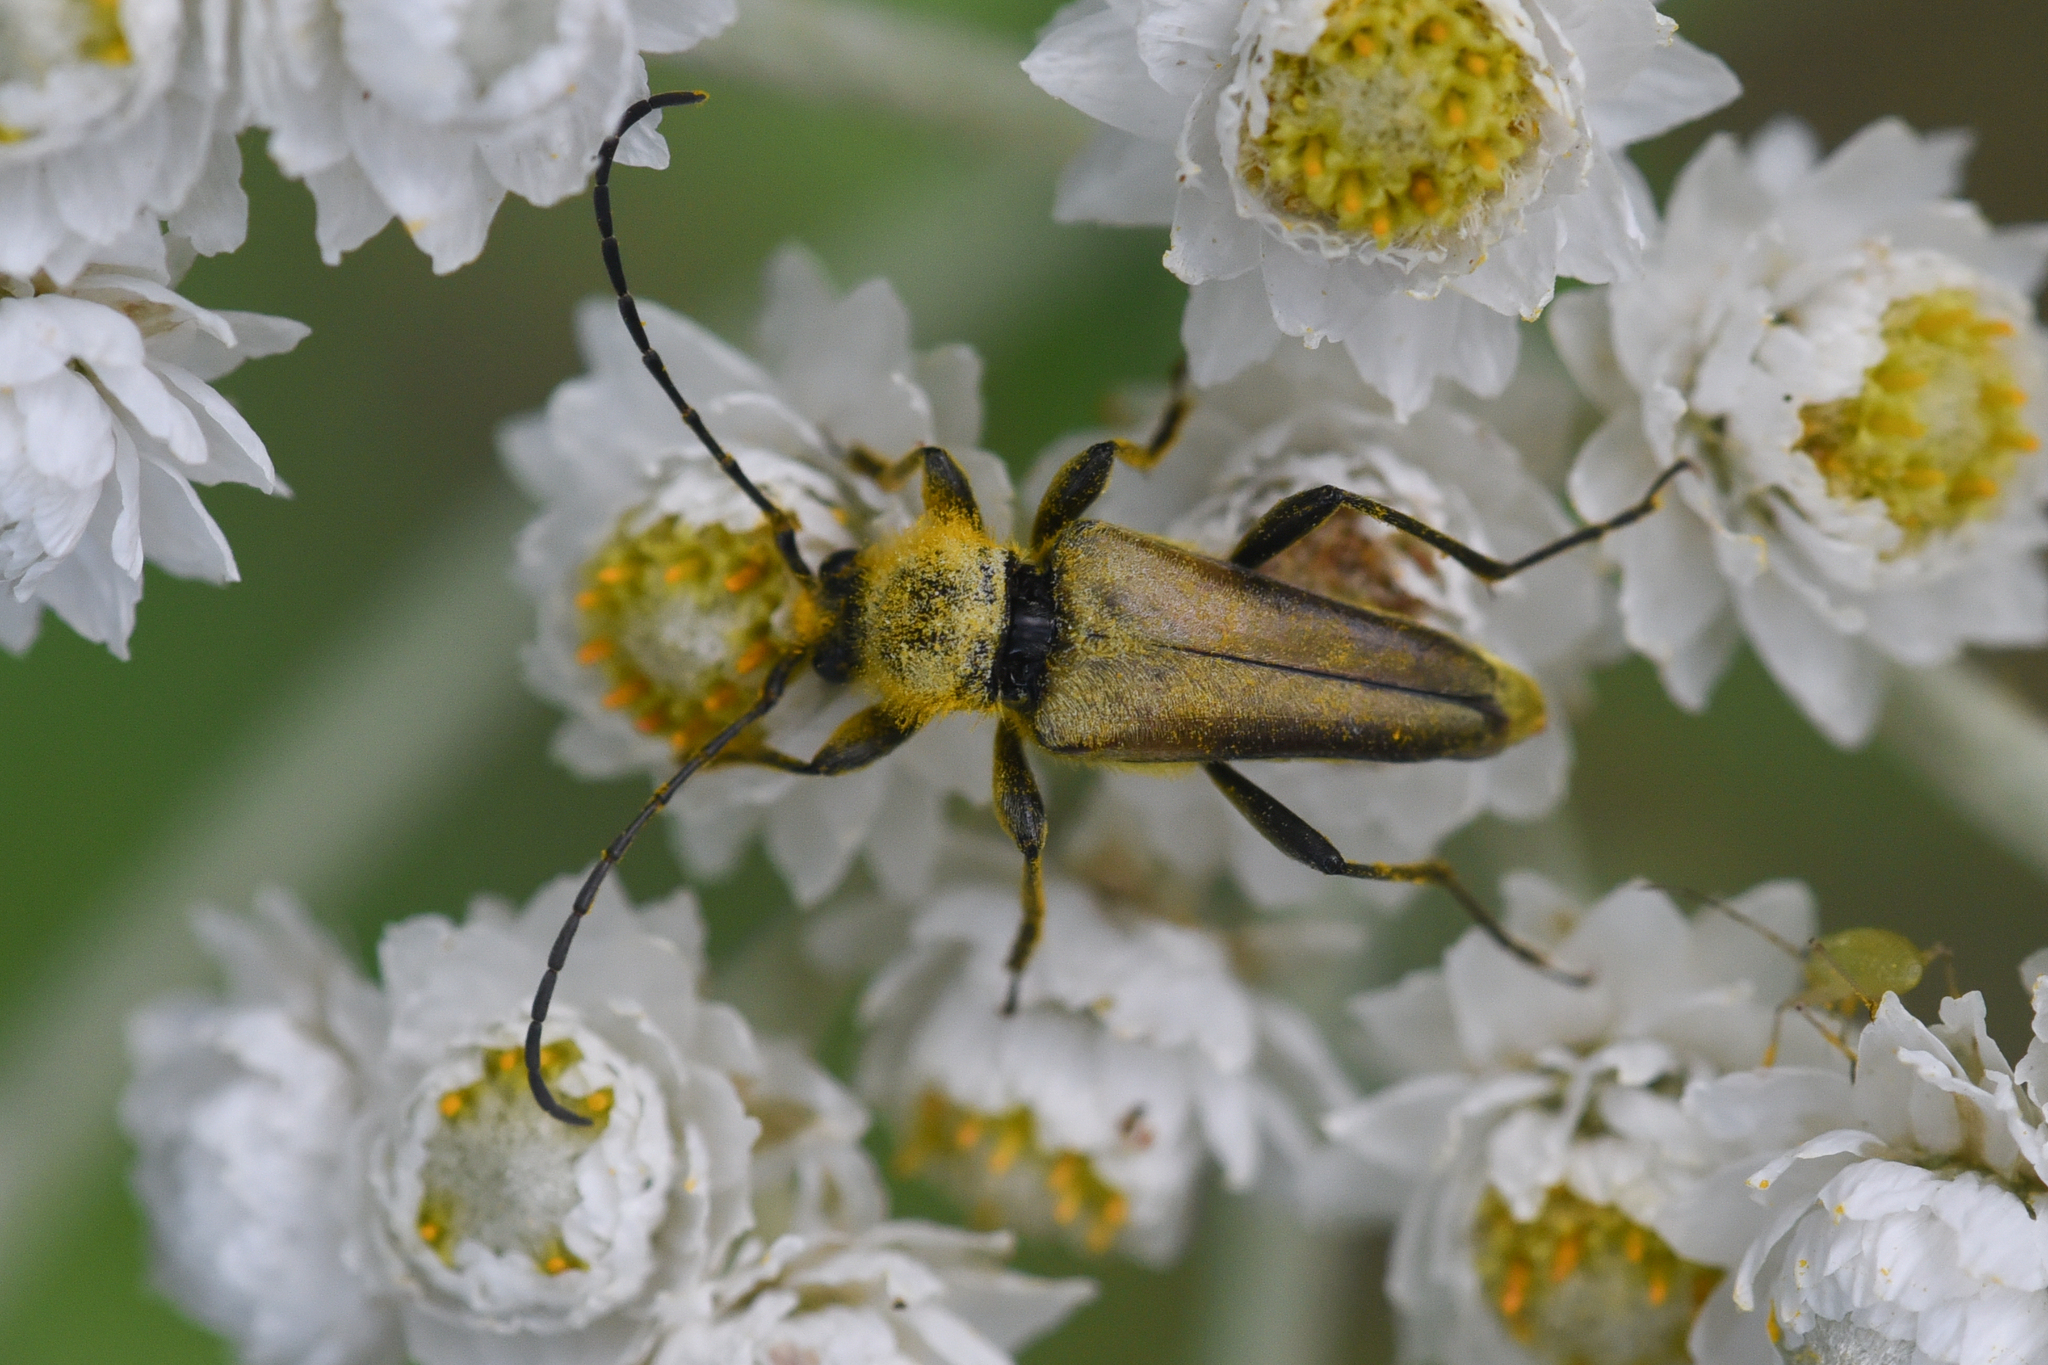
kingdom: Animalia
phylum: Arthropoda
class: Insecta
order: Coleoptera
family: Cerambycidae
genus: Cosmosalia
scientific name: Cosmosalia chrysocoma
